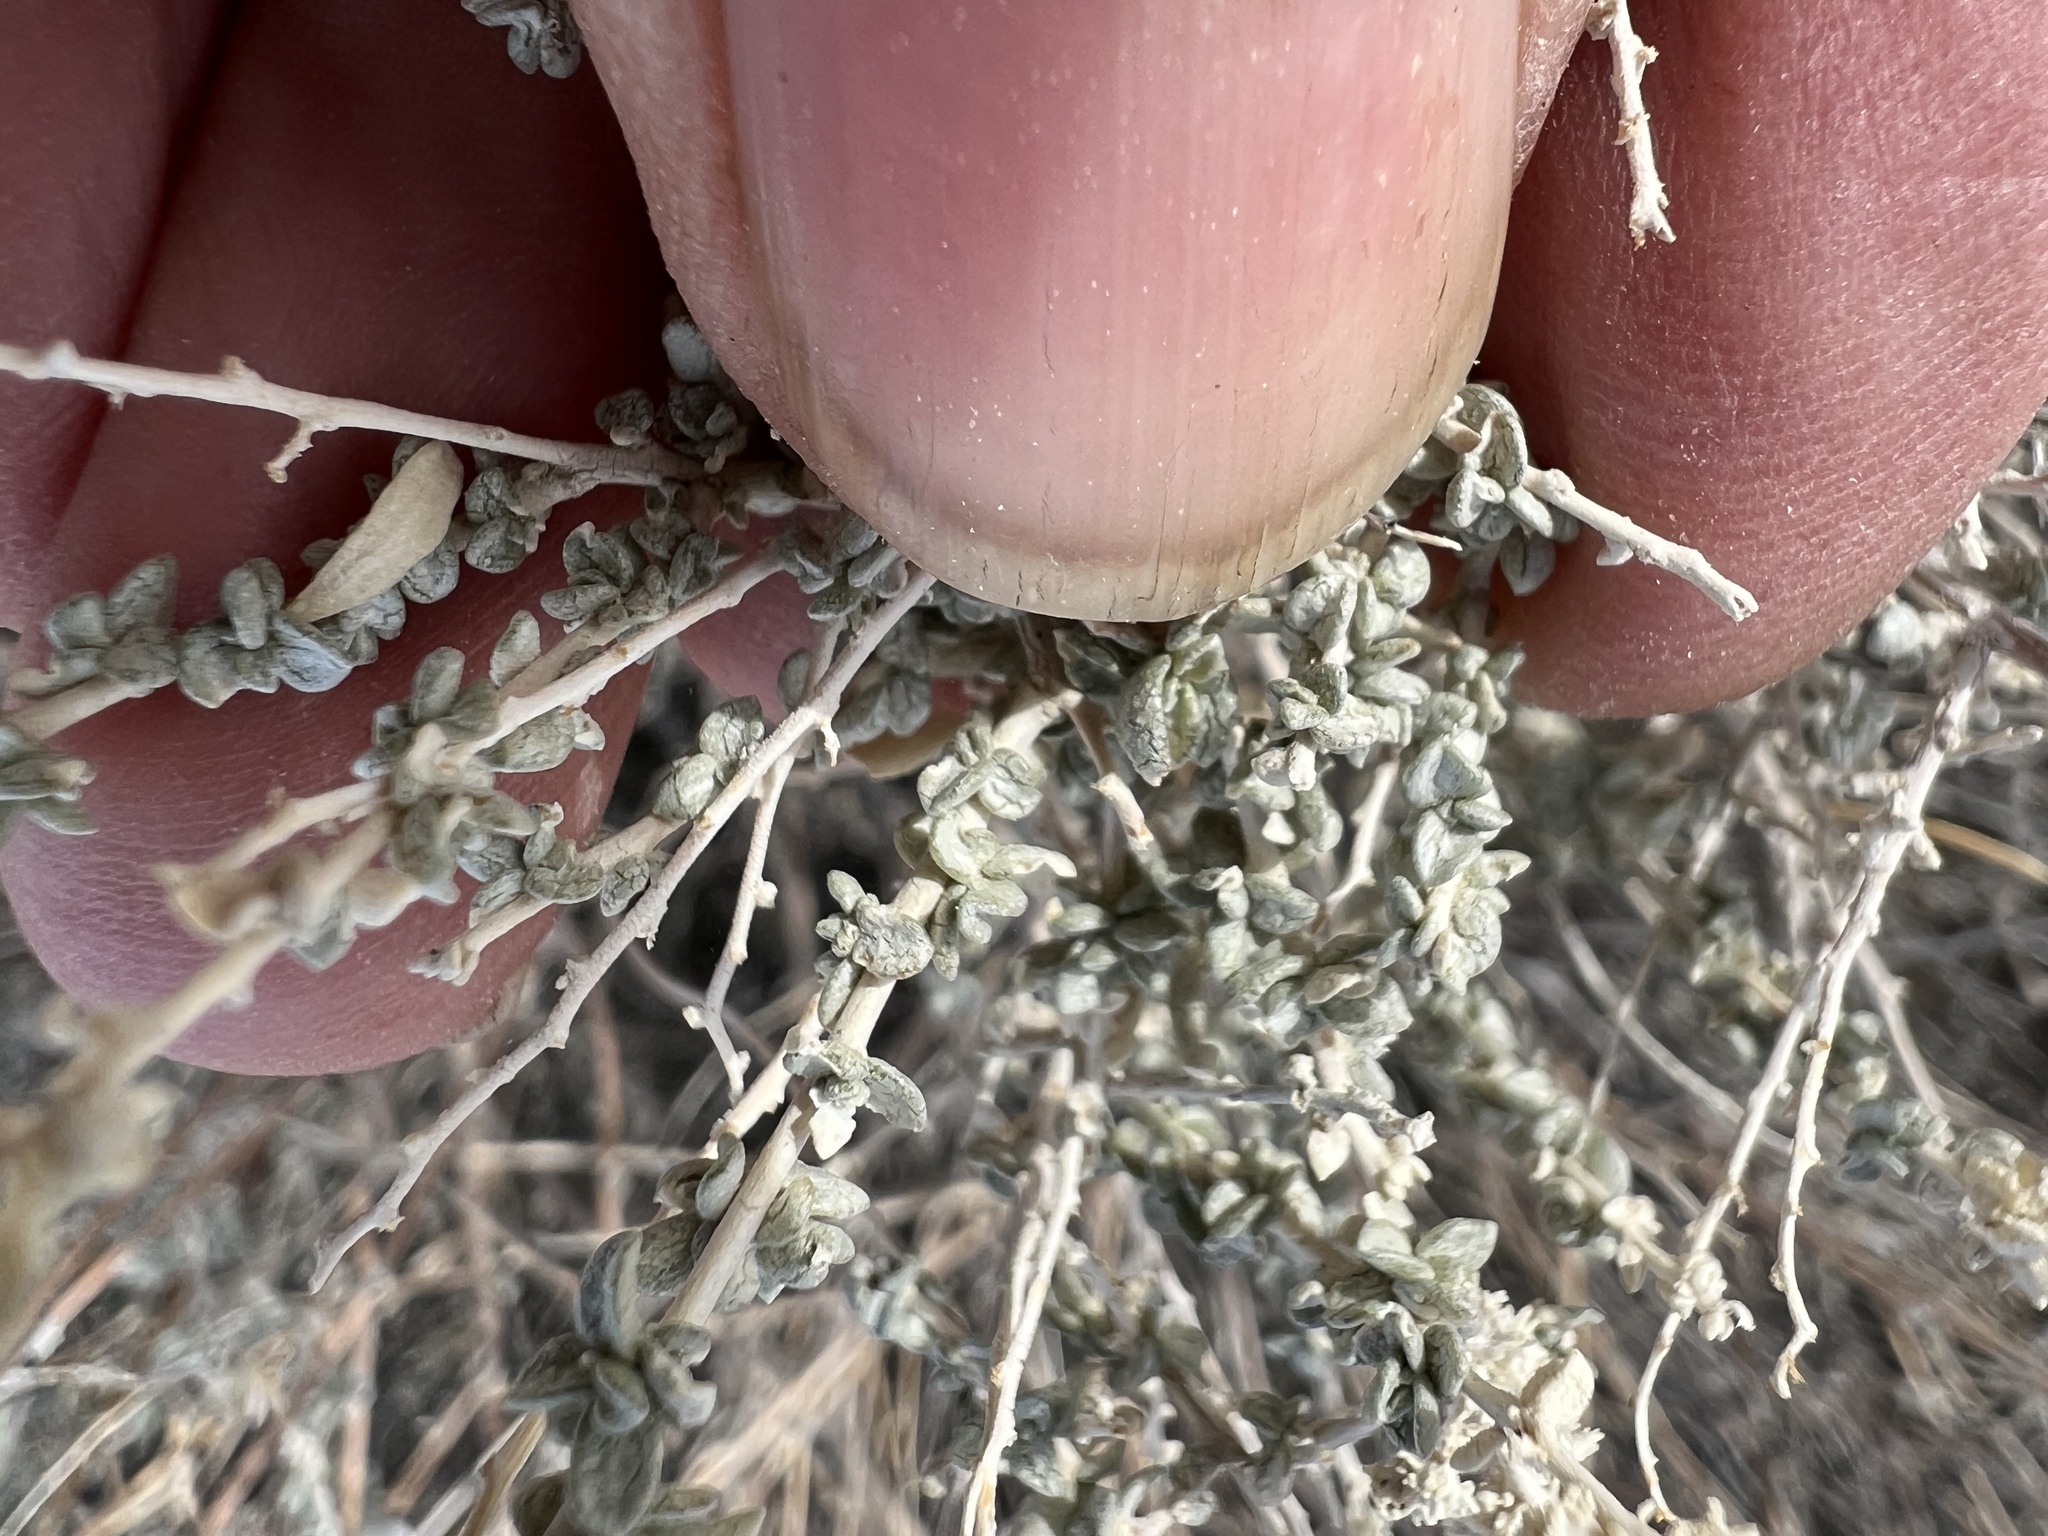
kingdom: Plantae
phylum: Tracheophyta
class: Magnoliopsida
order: Caryophyllales
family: Amaranthaceae
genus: Atriplex
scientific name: Atriplex polycarpa
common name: Desert saltbush
